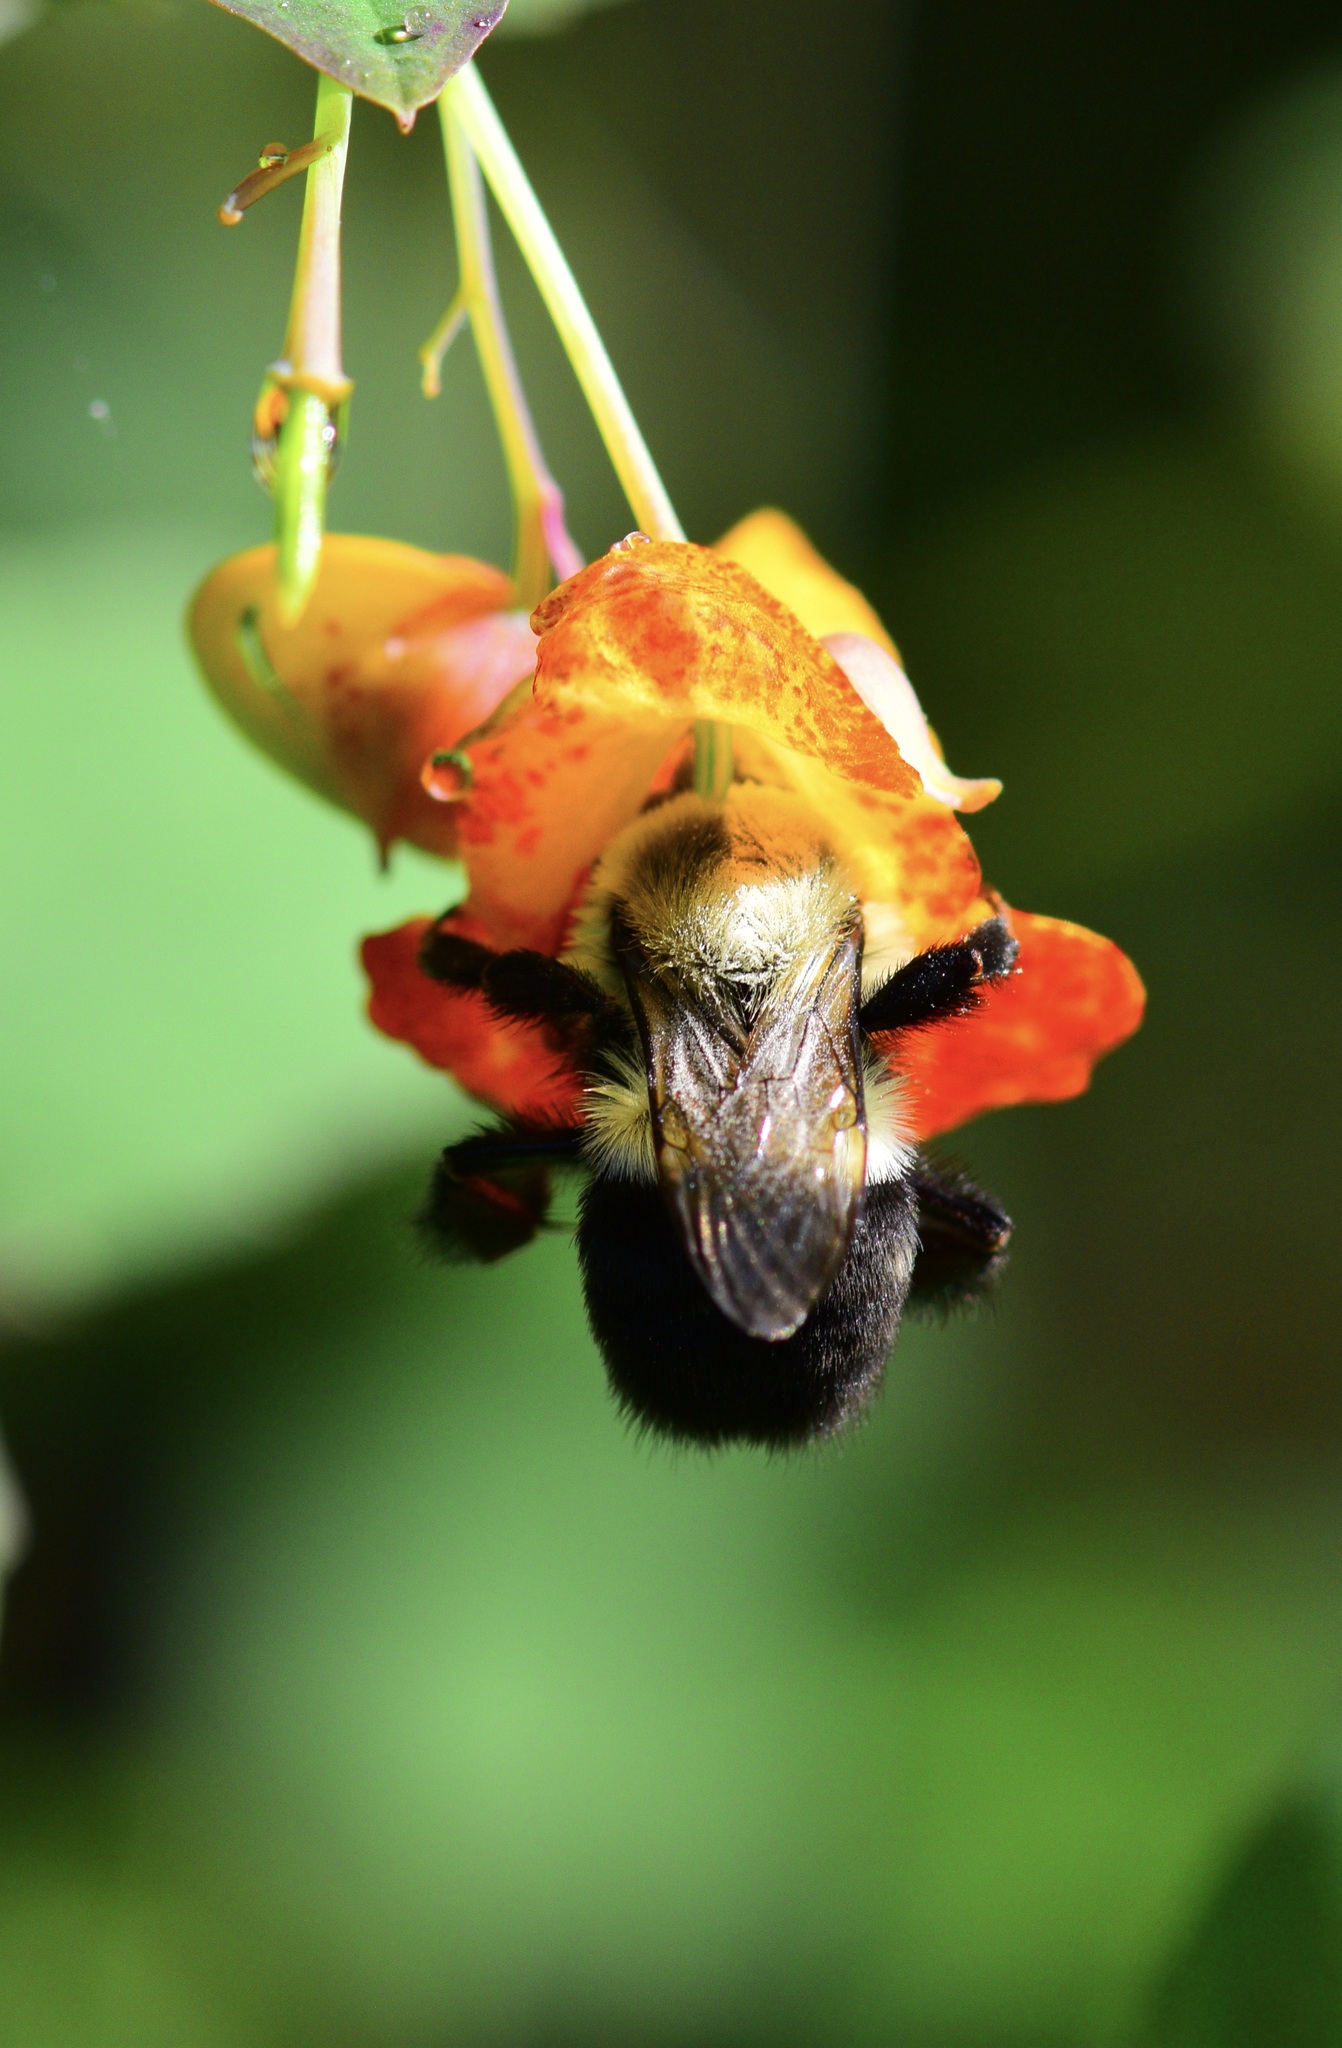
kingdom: Animalia
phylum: Arthropoda
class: Insecta
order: Hymenoptera
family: Apidae
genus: Bombus
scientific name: Bombus impatiens
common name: Common eastern bumble bee
